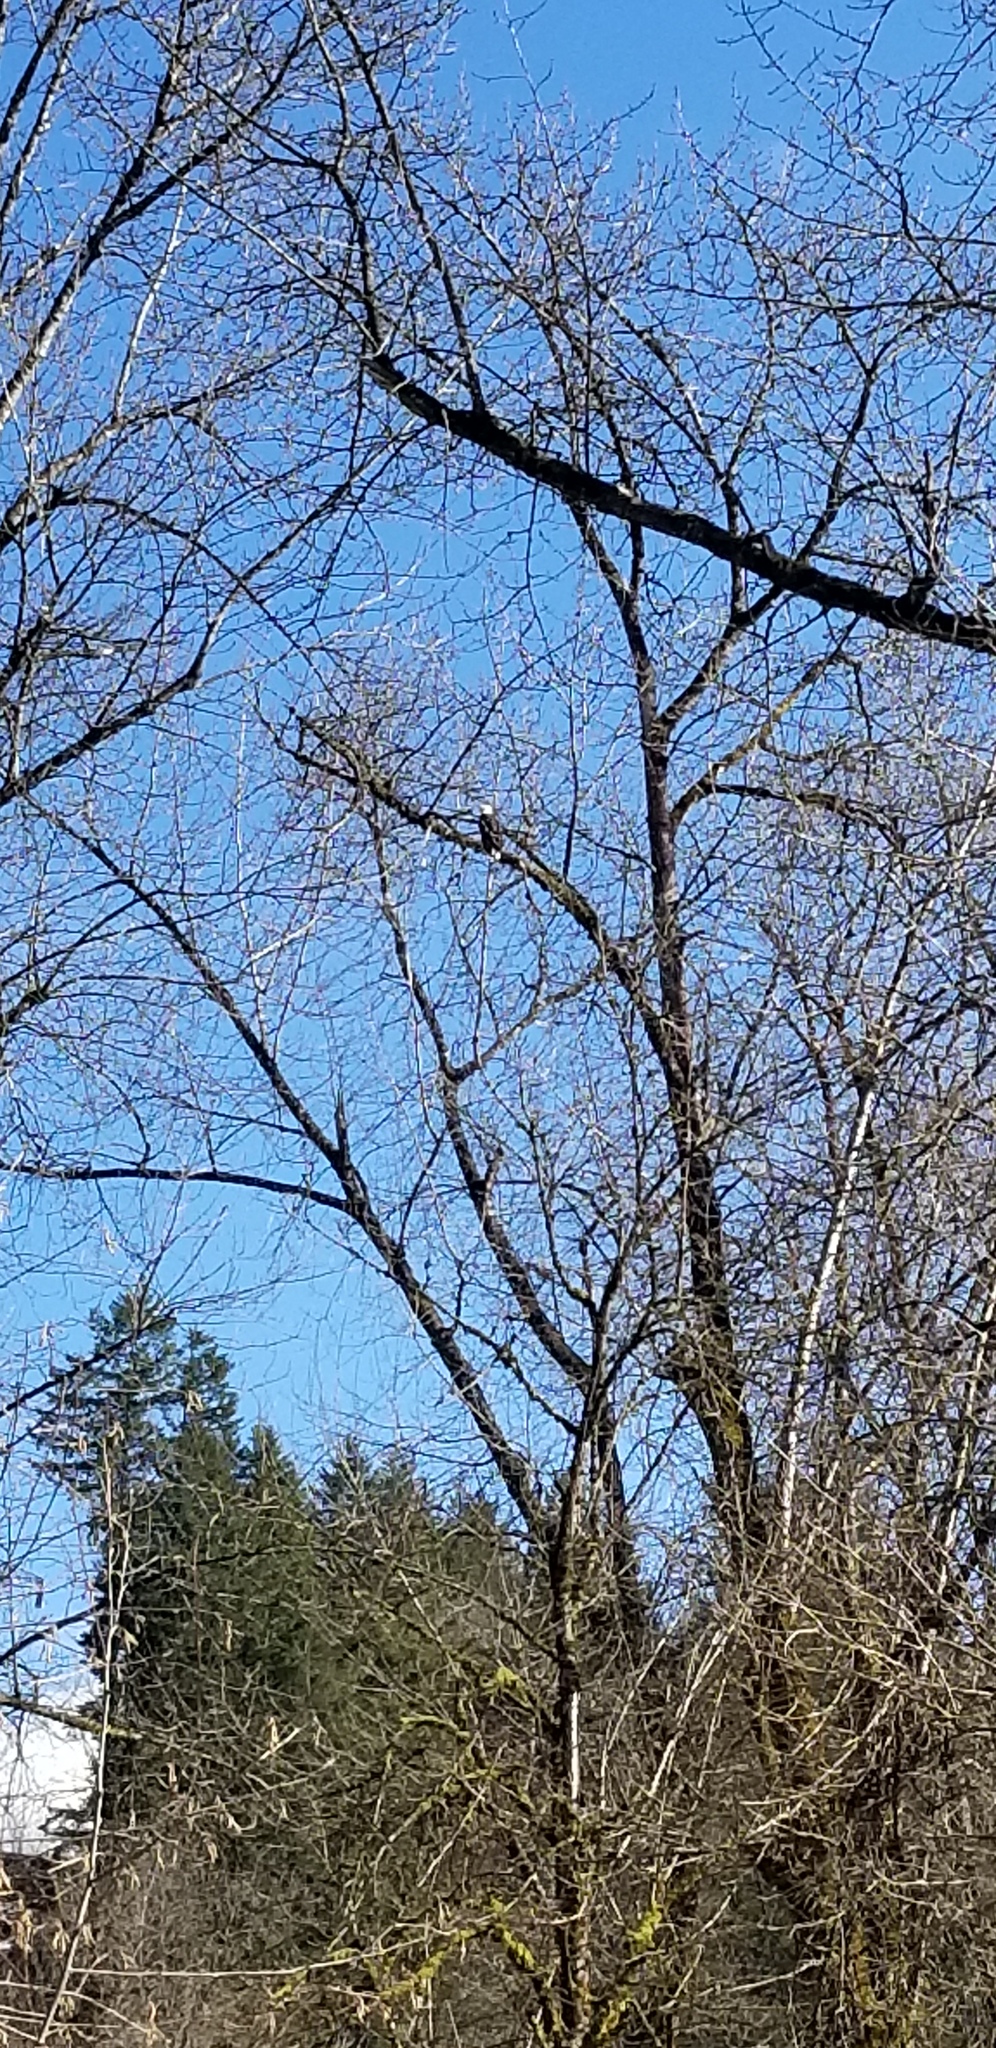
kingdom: Animalia
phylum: Chordata
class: Aves
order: Accipitriformes
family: Accipitridae
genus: Haliaeetus
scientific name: Haliaeetus leucocephalus
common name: Bald eagle
